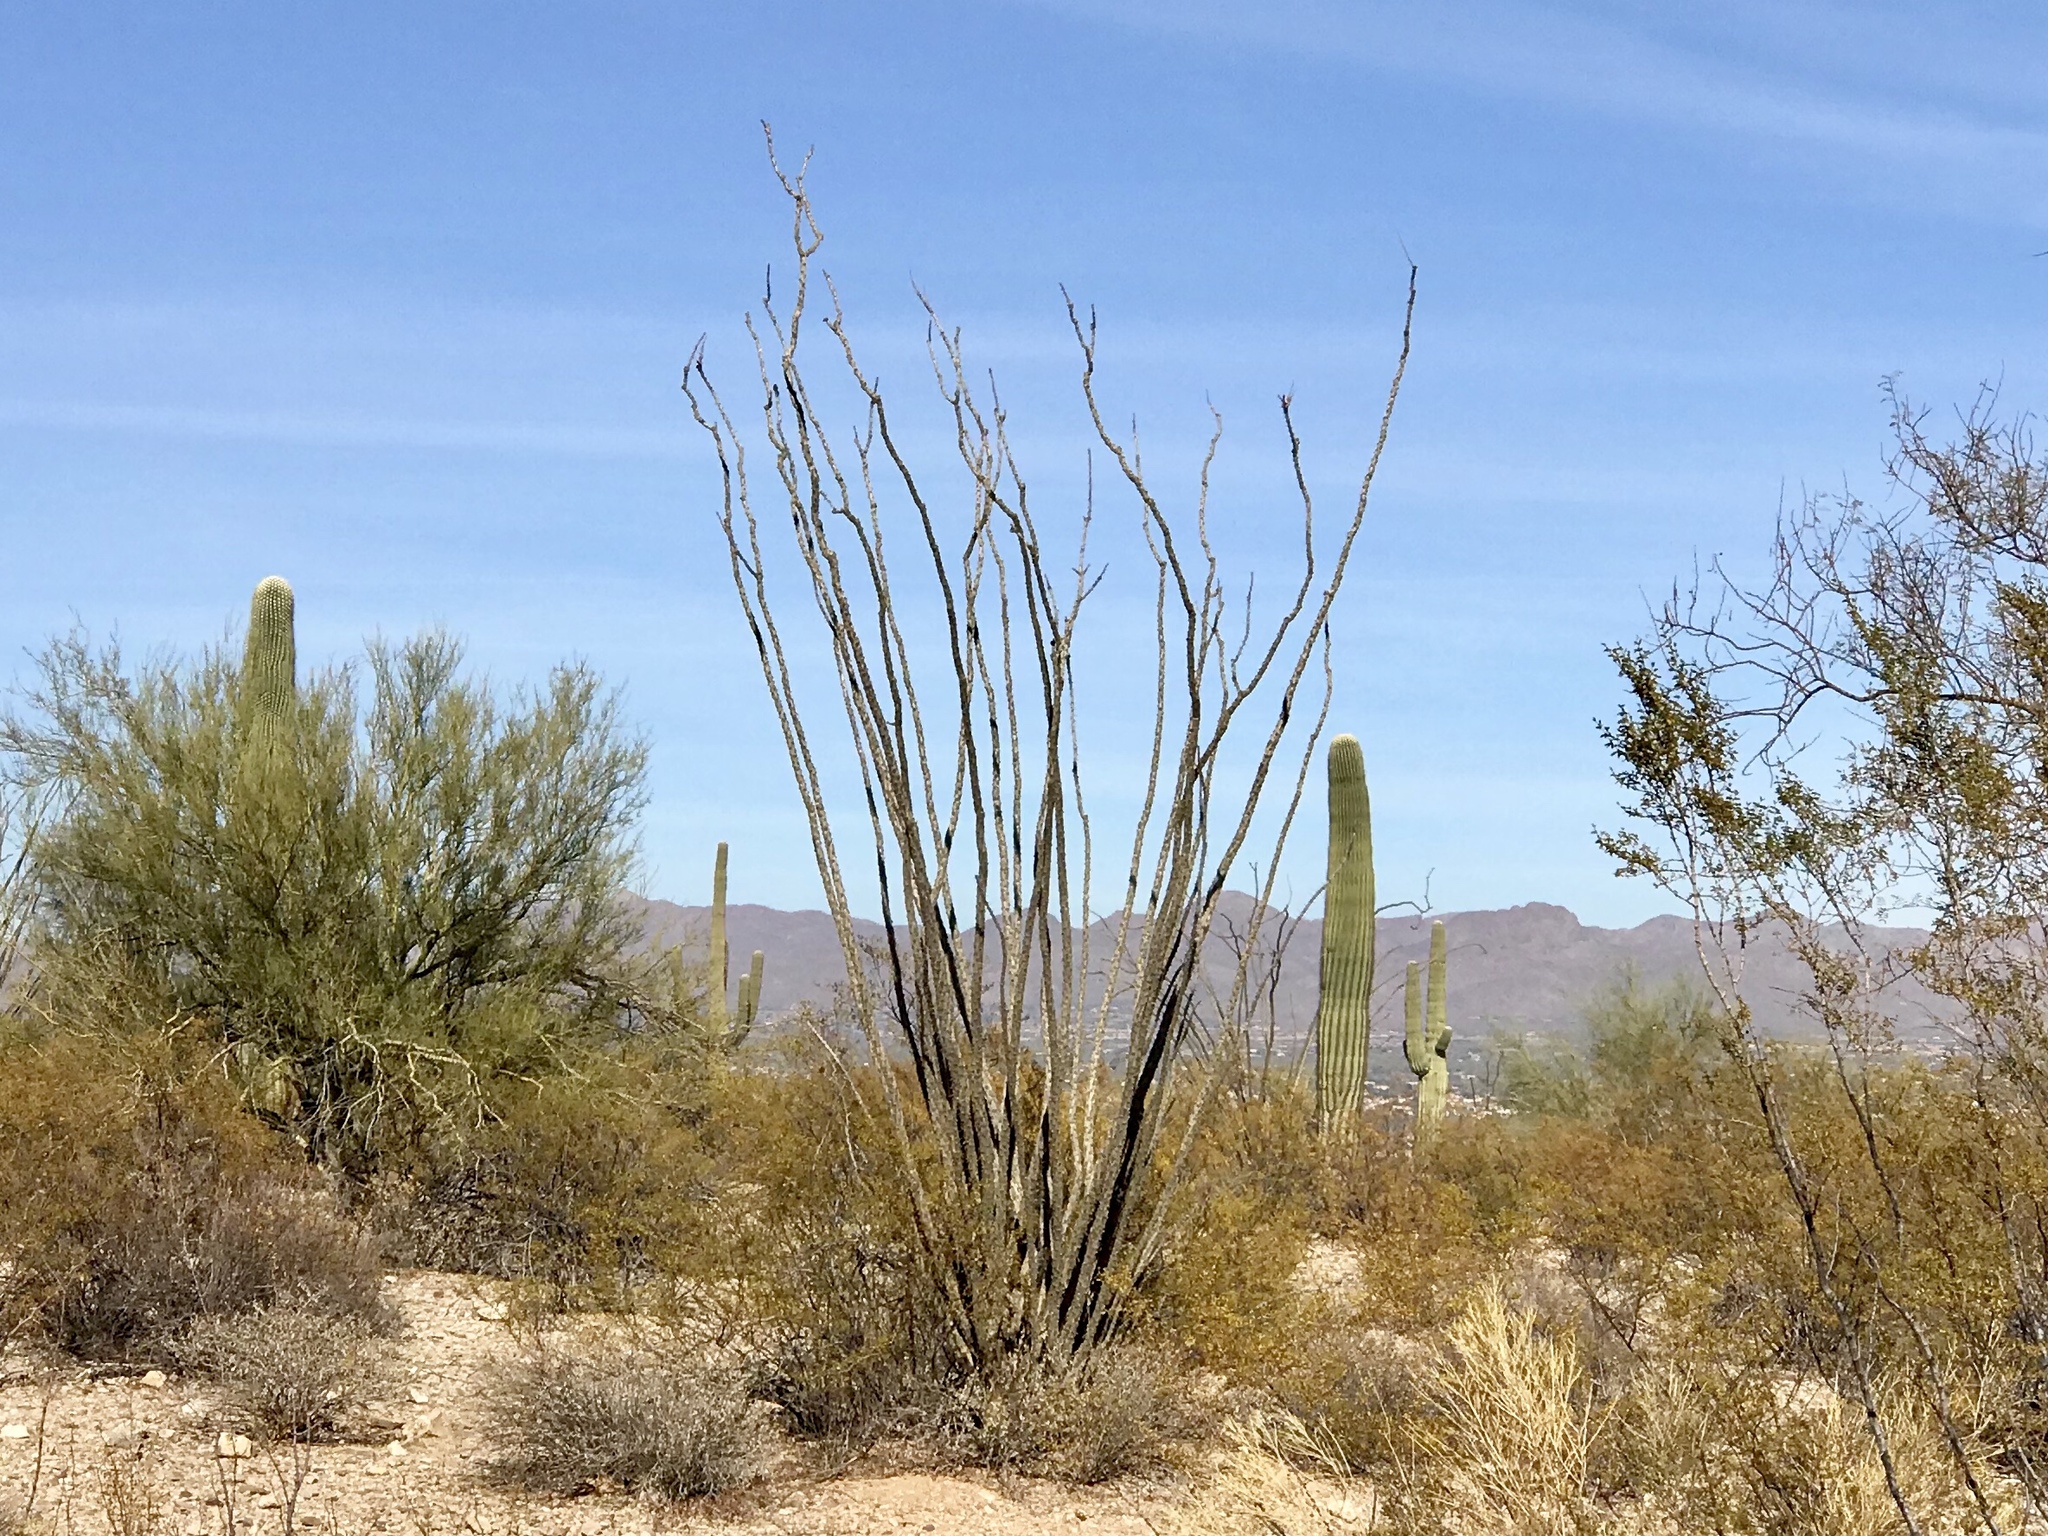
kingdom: Plantae
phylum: Tracheophyta
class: Magnoliopsida
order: Ericales
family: Fouquieriaceae
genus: Fouquieria
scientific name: Fouquieria splendens
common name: Vine-cactus
